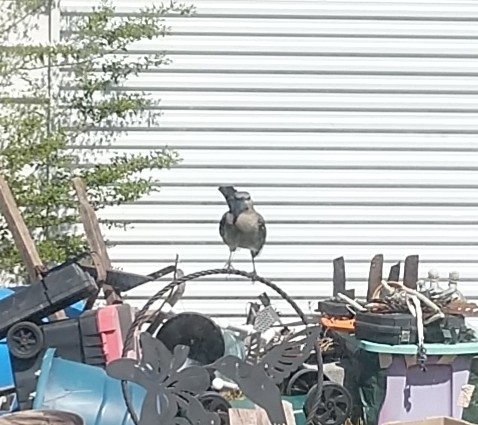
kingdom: Animalia
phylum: Chordata
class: Aves
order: Passeriformes
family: Mimidae
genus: Mimus
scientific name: Mimus polyglottos
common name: Northern mockingbird
